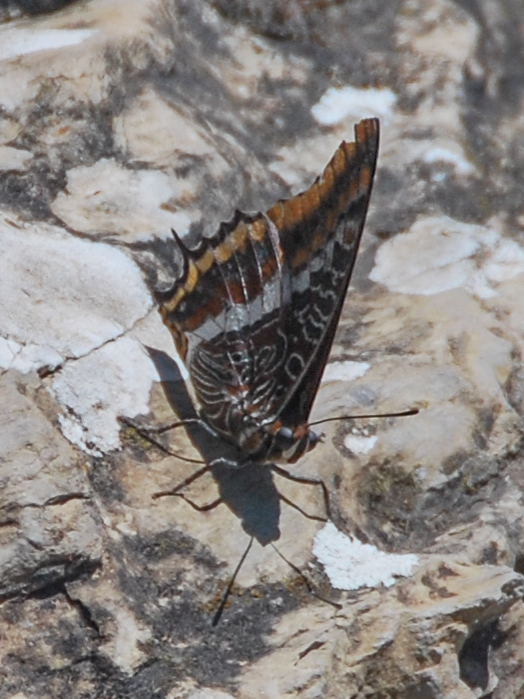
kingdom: Animalia
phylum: Arthropoda
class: Insecta
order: Lepidoptera
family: Nymphalidae
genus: Charaxes
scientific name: Charaxes jasius
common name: Two tailed pasha
